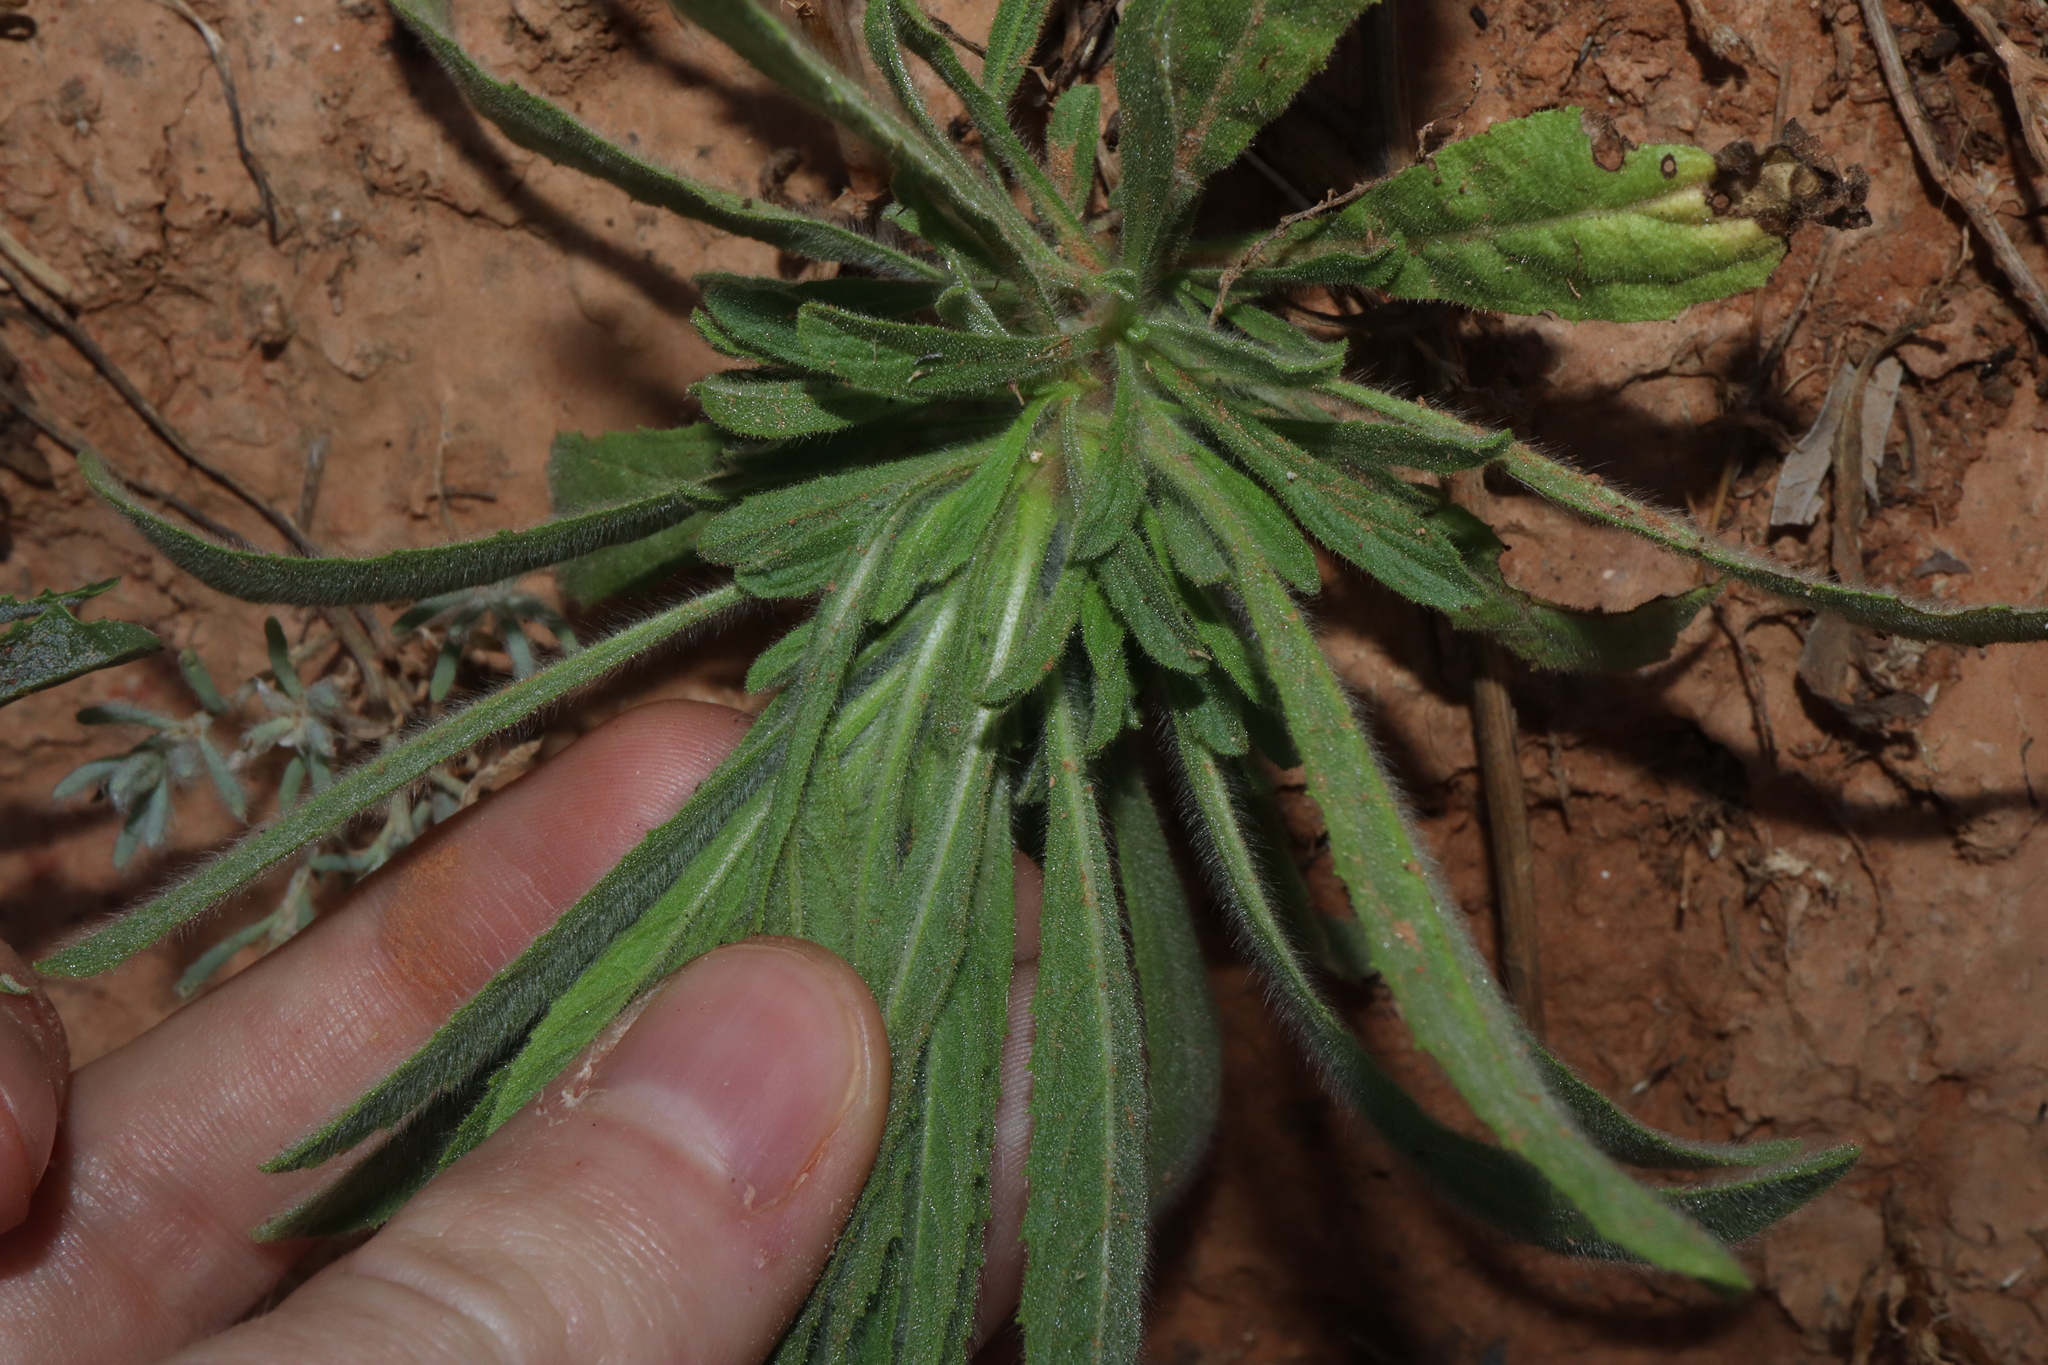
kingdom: Plantae
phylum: Tracheophyta
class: Magnoliopsida
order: Asterales
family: Asteraceae
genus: Erigeron
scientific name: Erigeron bonariensis
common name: Argentine fleabane
